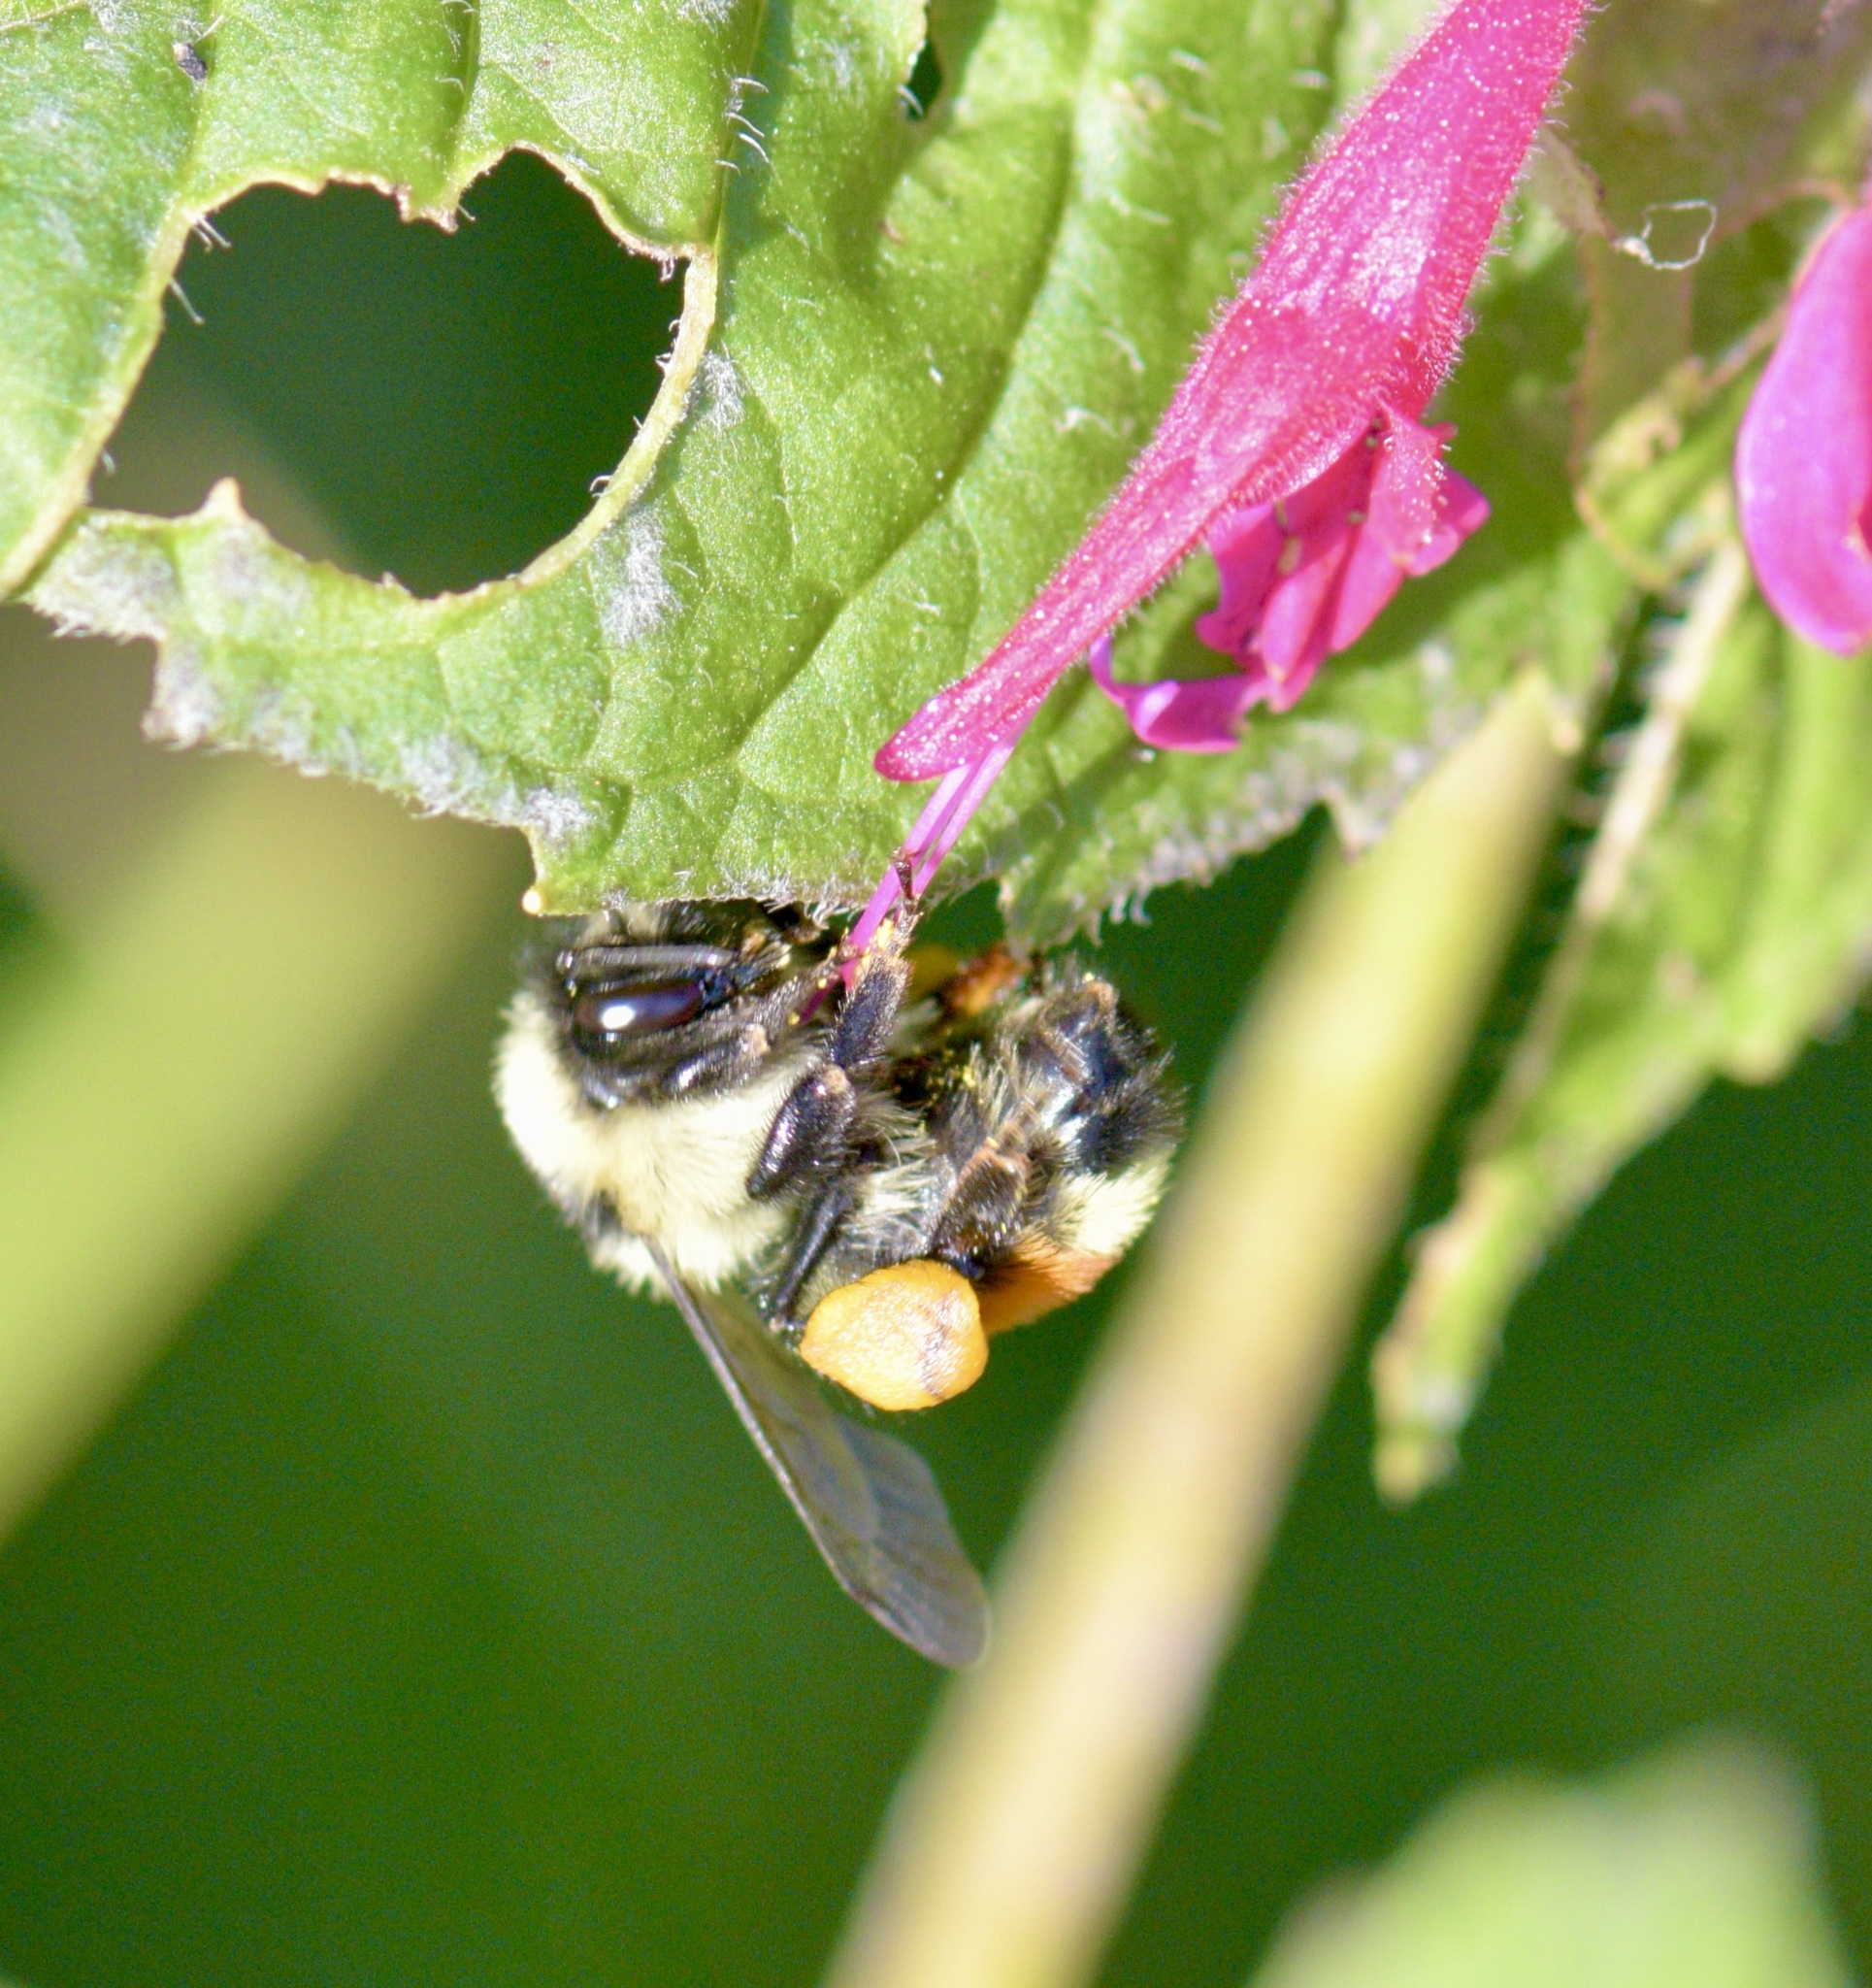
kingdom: Animalia
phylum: Arthropoda
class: Insecta
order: Hymenoptera
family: Apidae
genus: Bombus
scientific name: Bombus ternarius
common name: Tri-colored bumble bee
